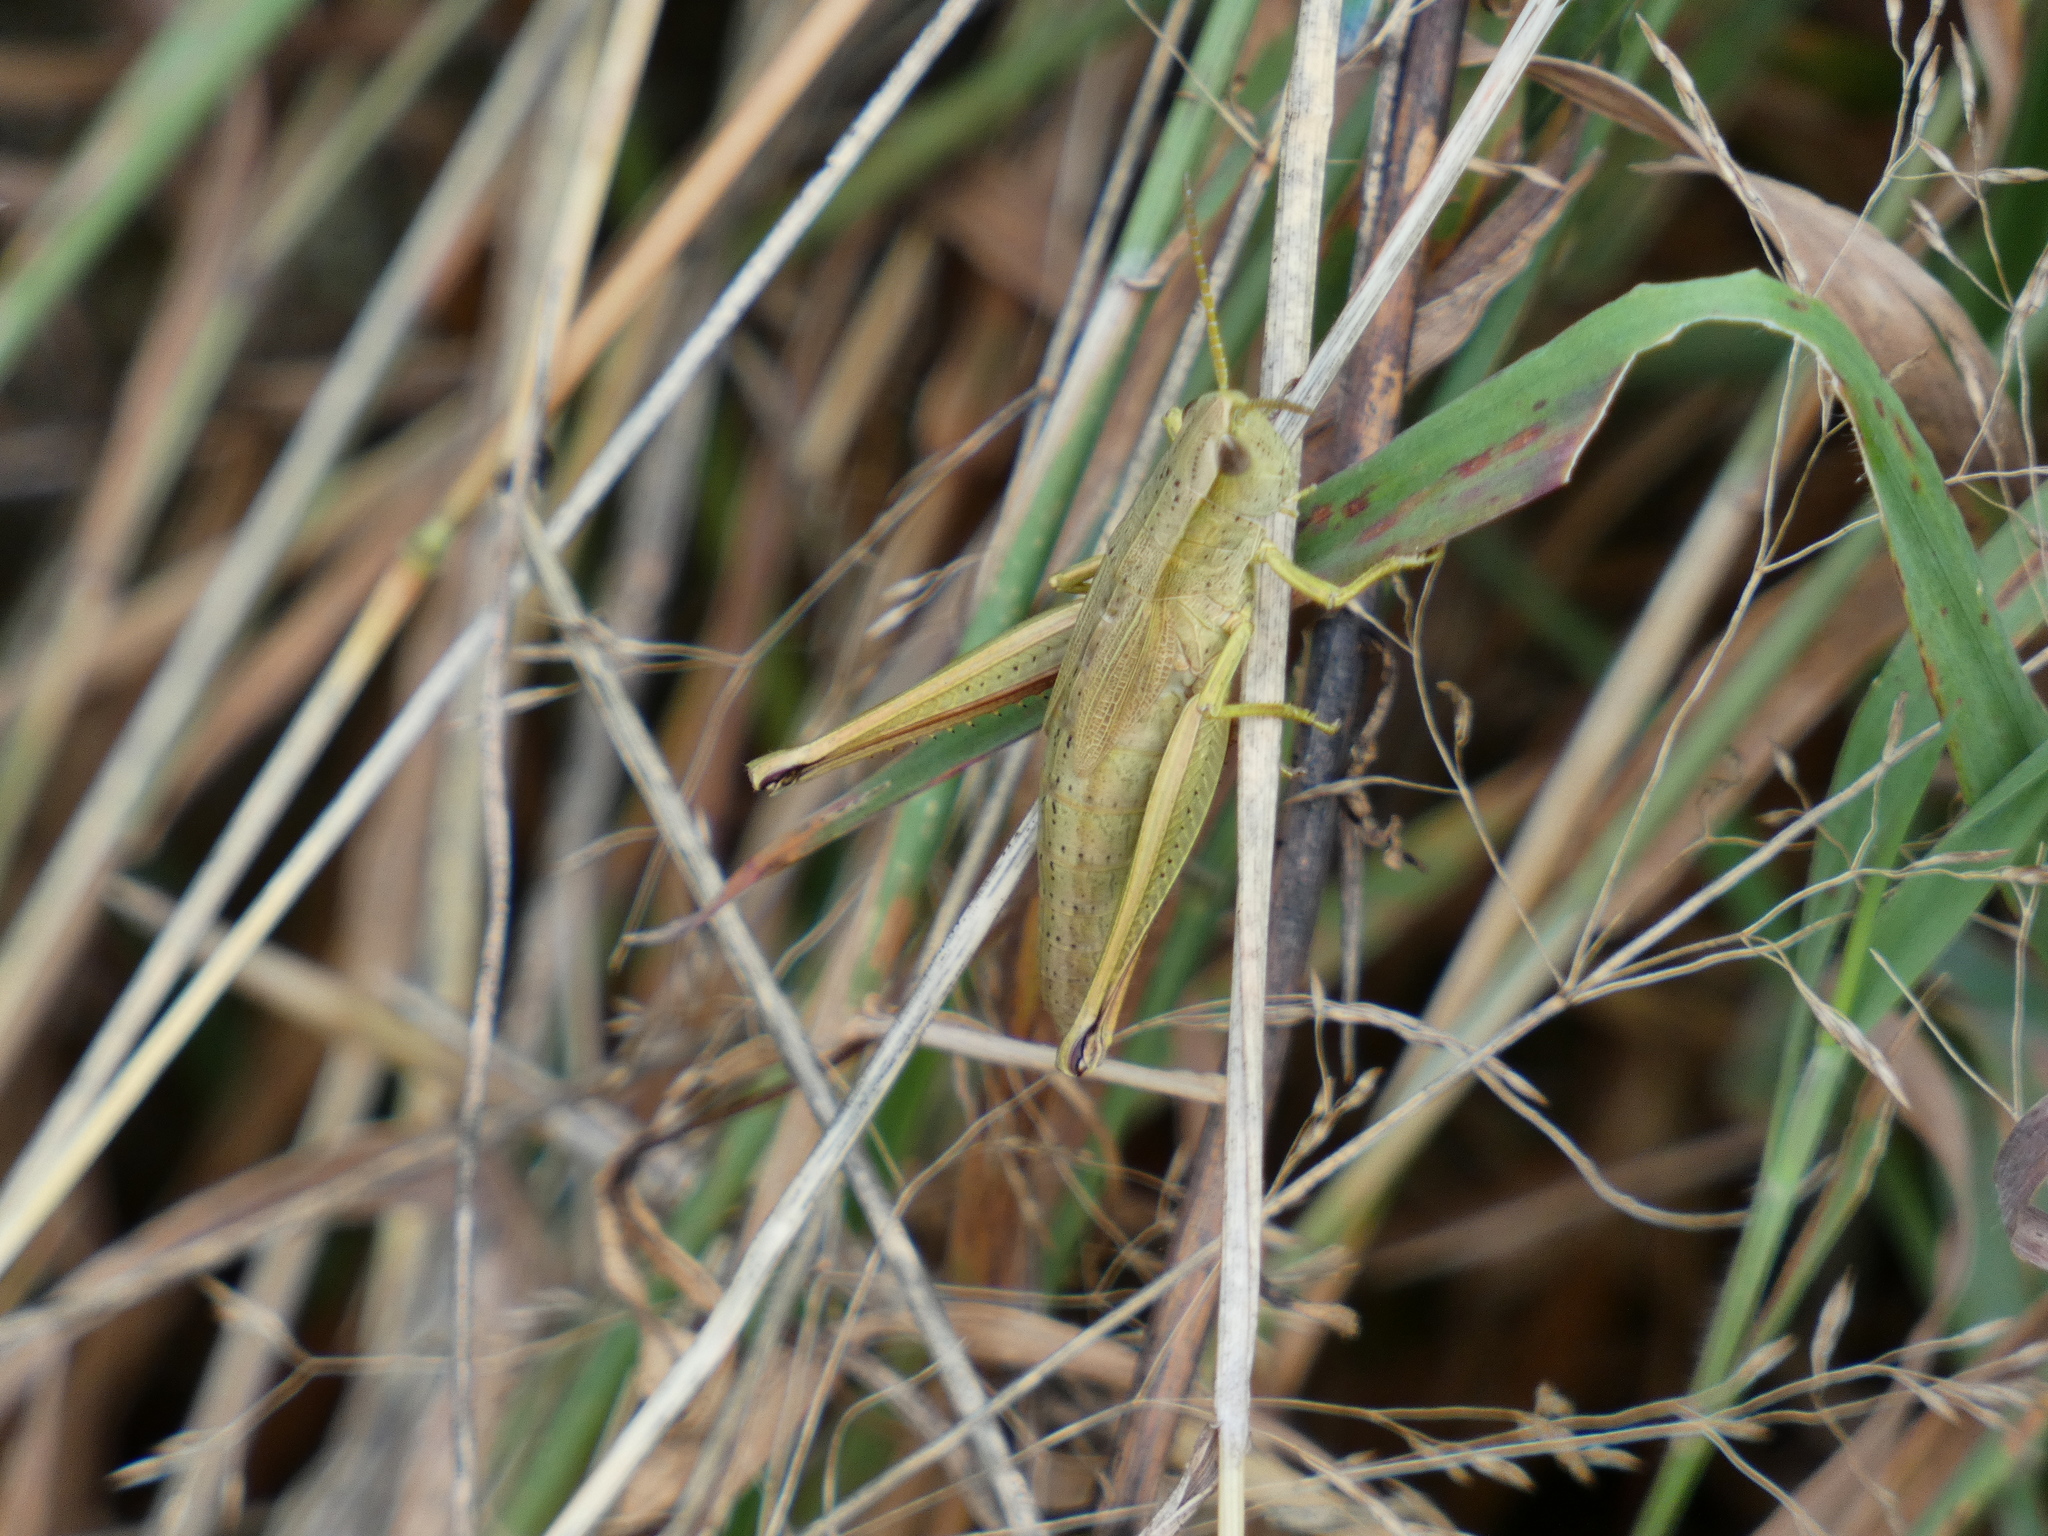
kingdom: Animalia
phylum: Arthropoda
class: Insecta
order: Orthoptera
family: Acrididae
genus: Chrysochraon
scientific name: Chrysochraon dispar
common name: Large gold grasshopper
